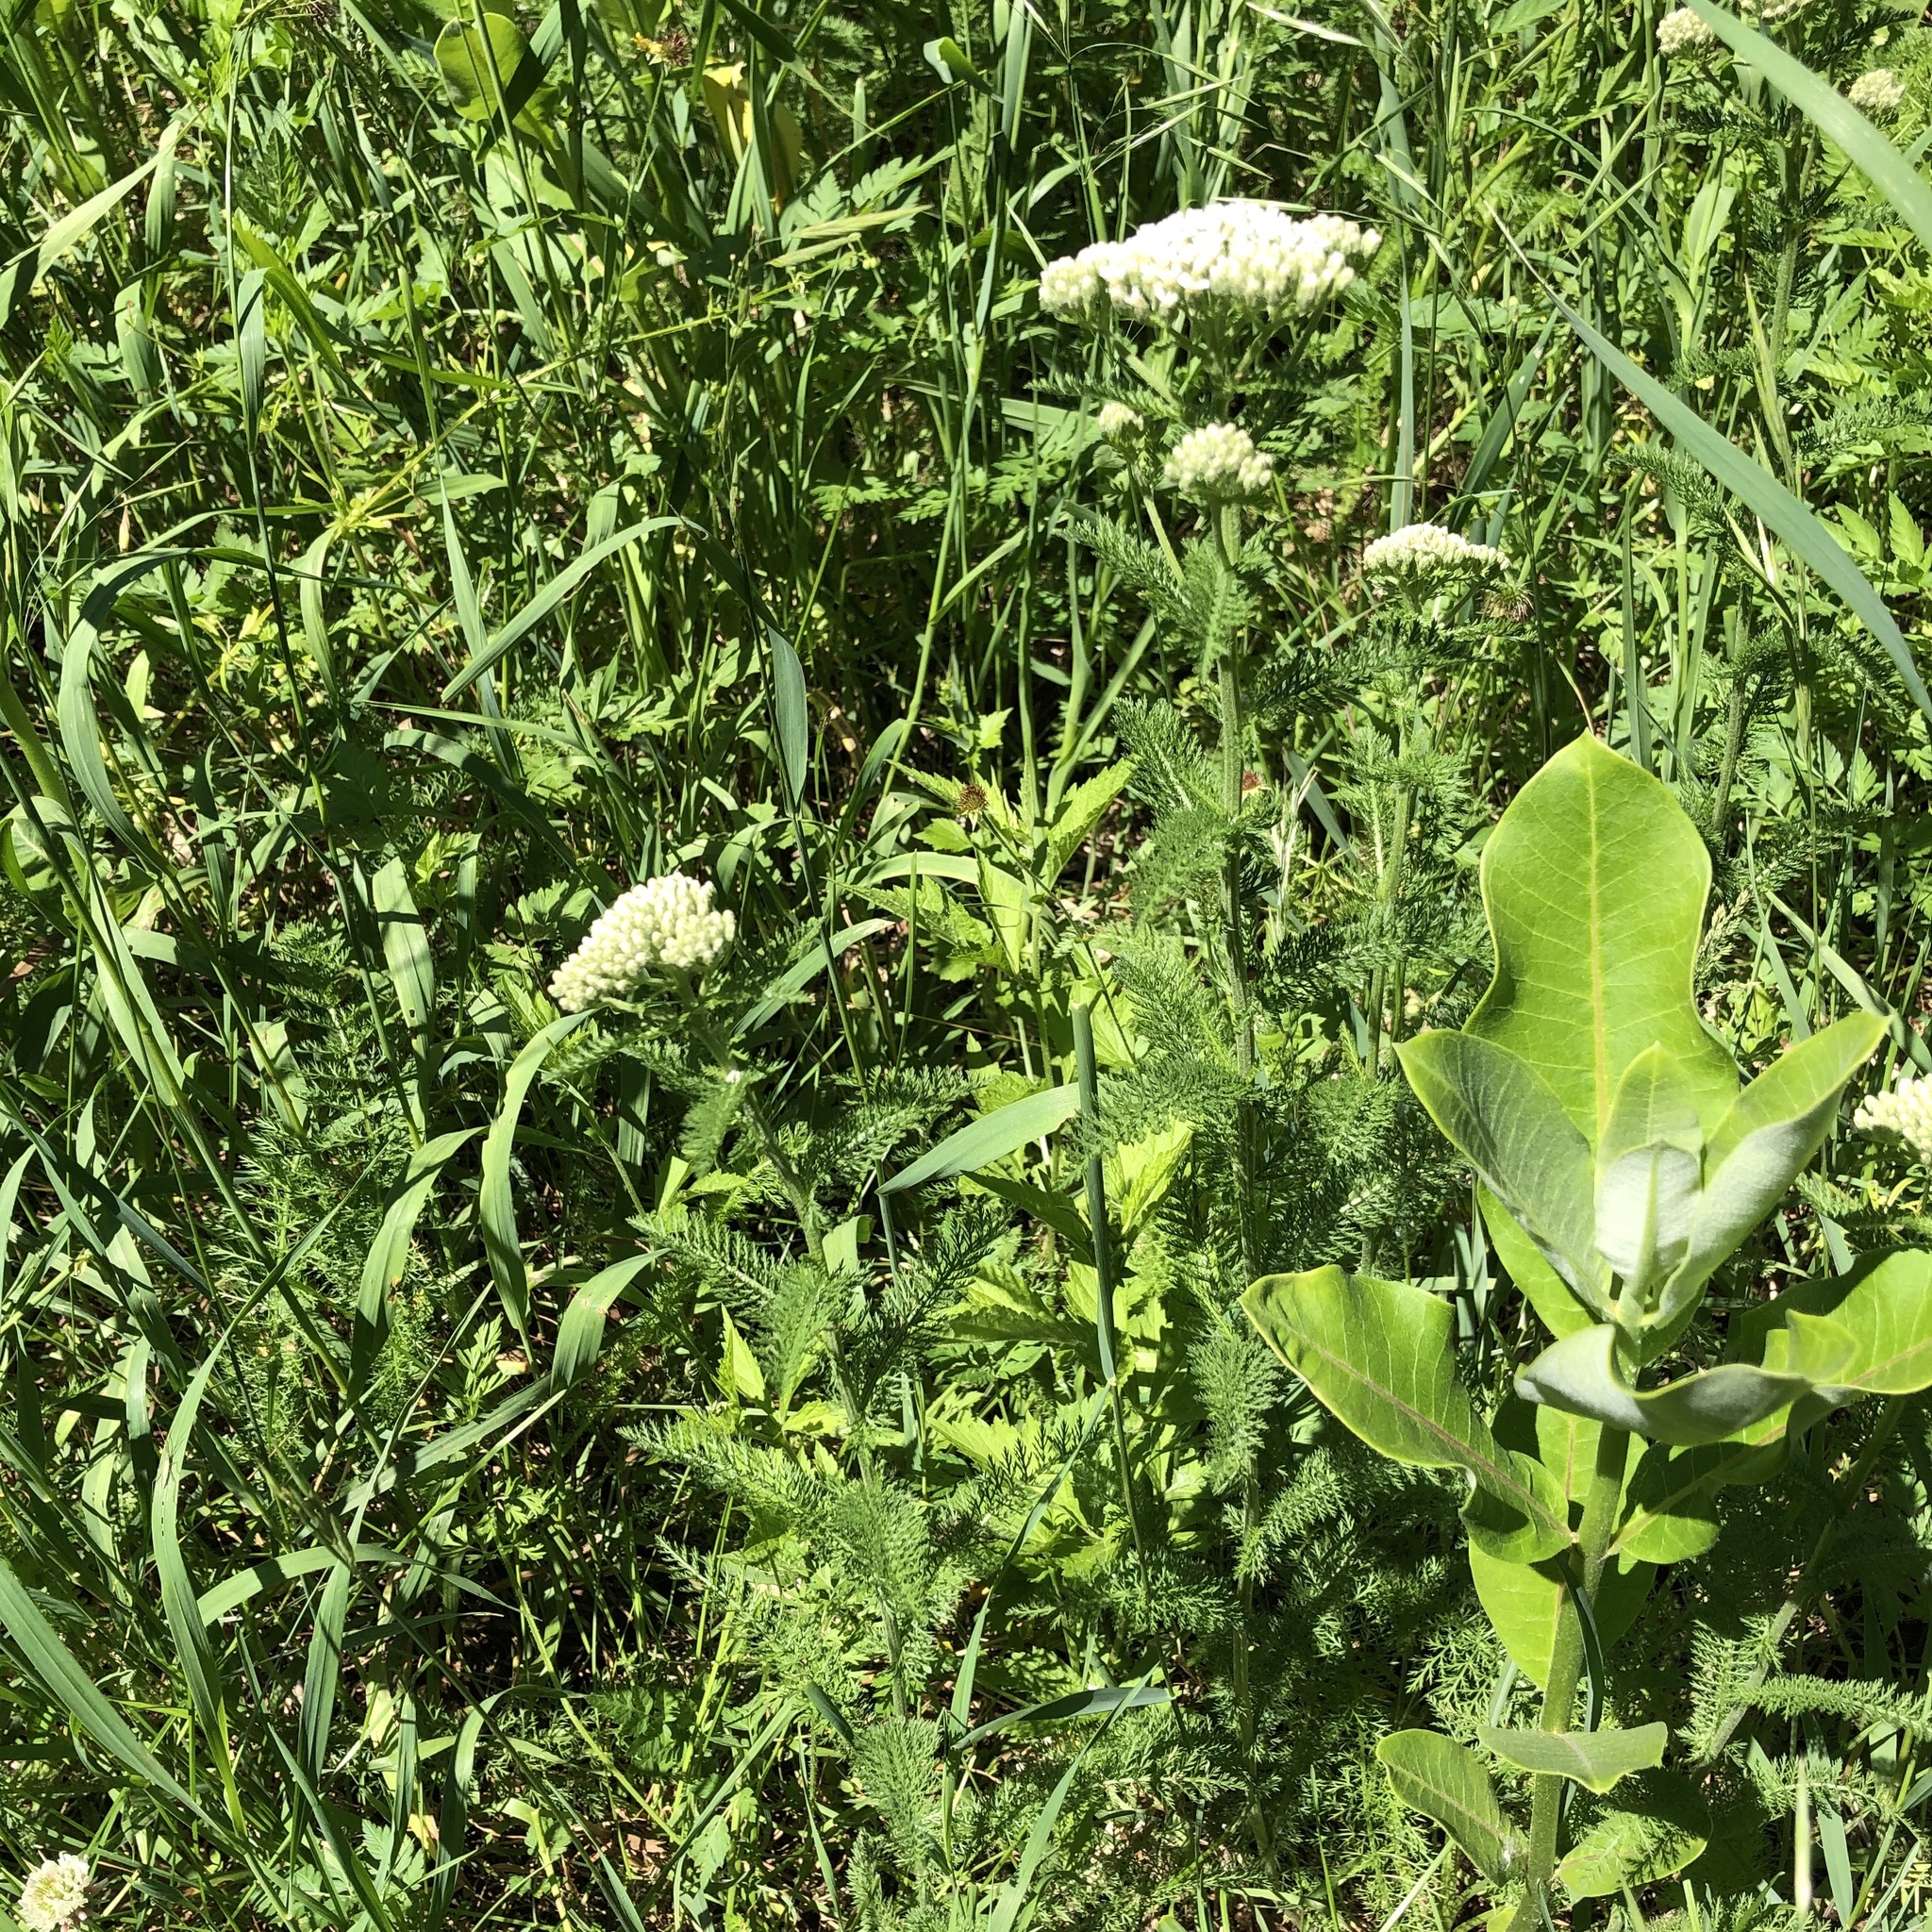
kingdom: Plantae
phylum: Tracheophyta
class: Magnoliopsida
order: Asterales
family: Asteraceae
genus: Achillea
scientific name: Achillea millefolium
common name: Yarrow
